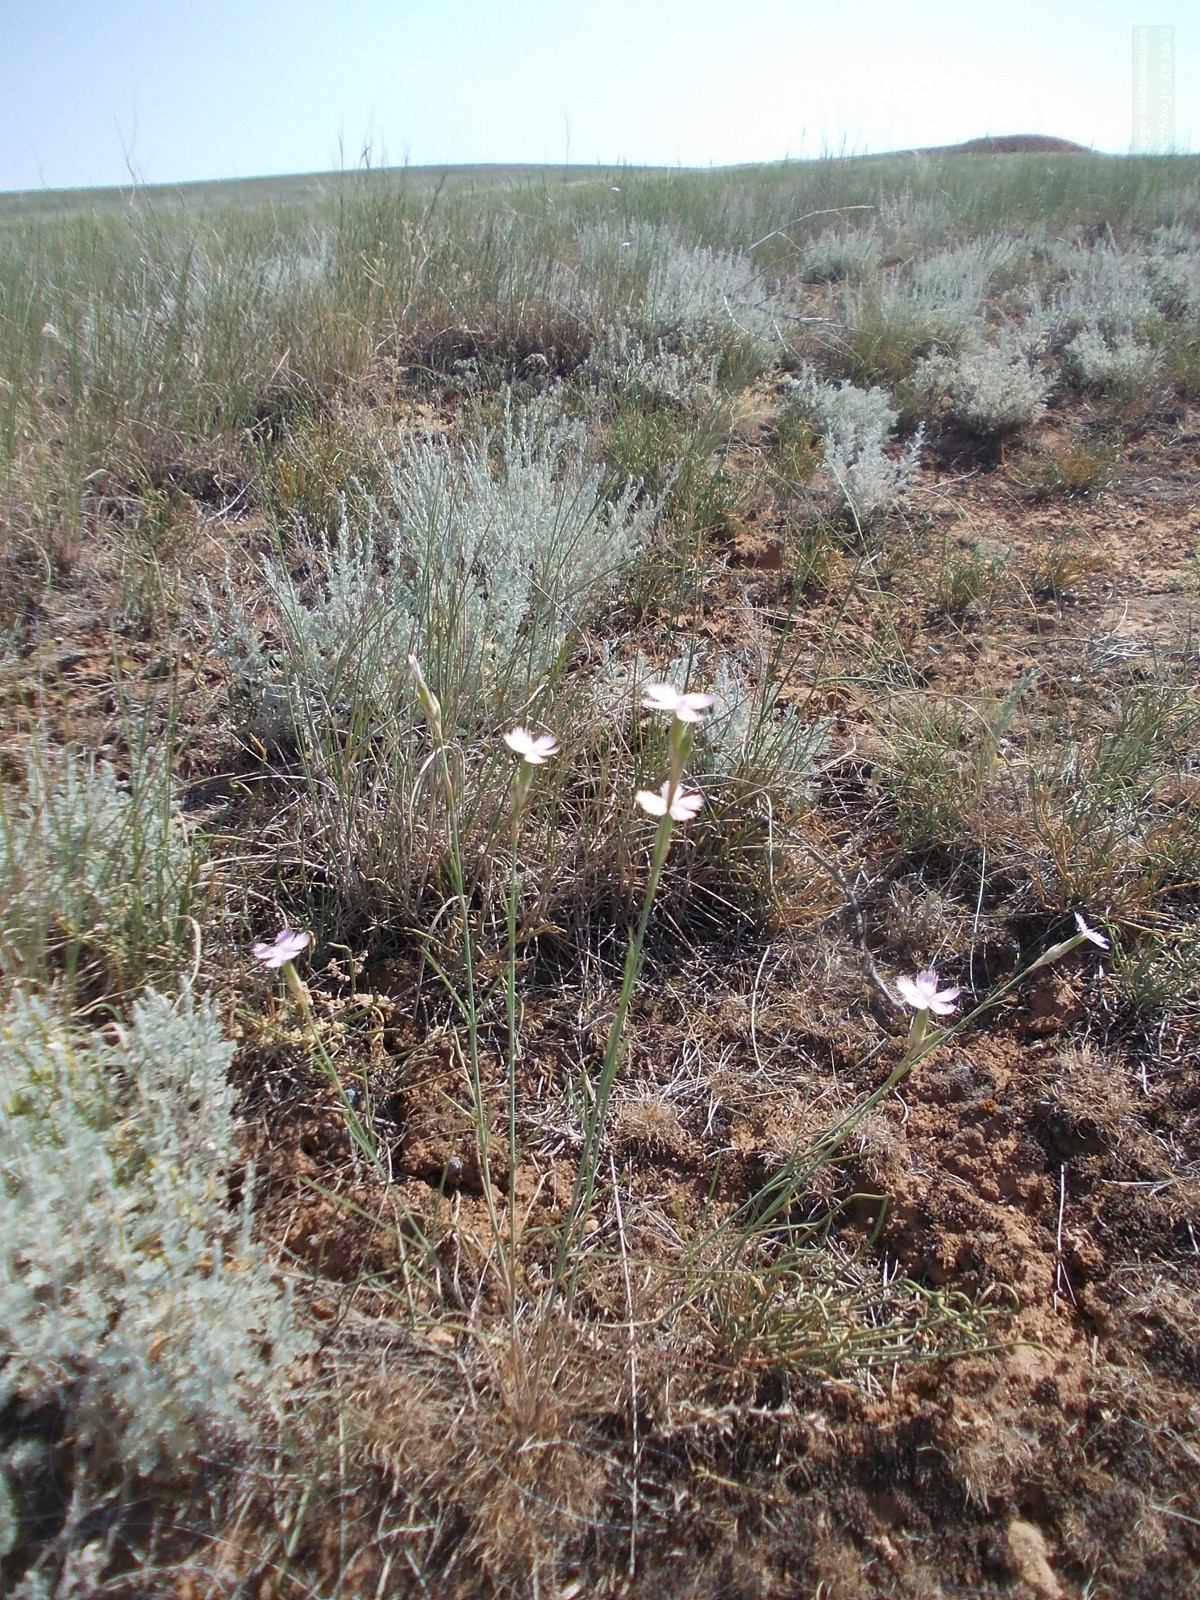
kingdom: Plantae
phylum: Tracheophyta
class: Magnoliopsida
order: Caryophyllales
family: Caryophyllaceae
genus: Dianthus
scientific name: Dianthus borbasii
